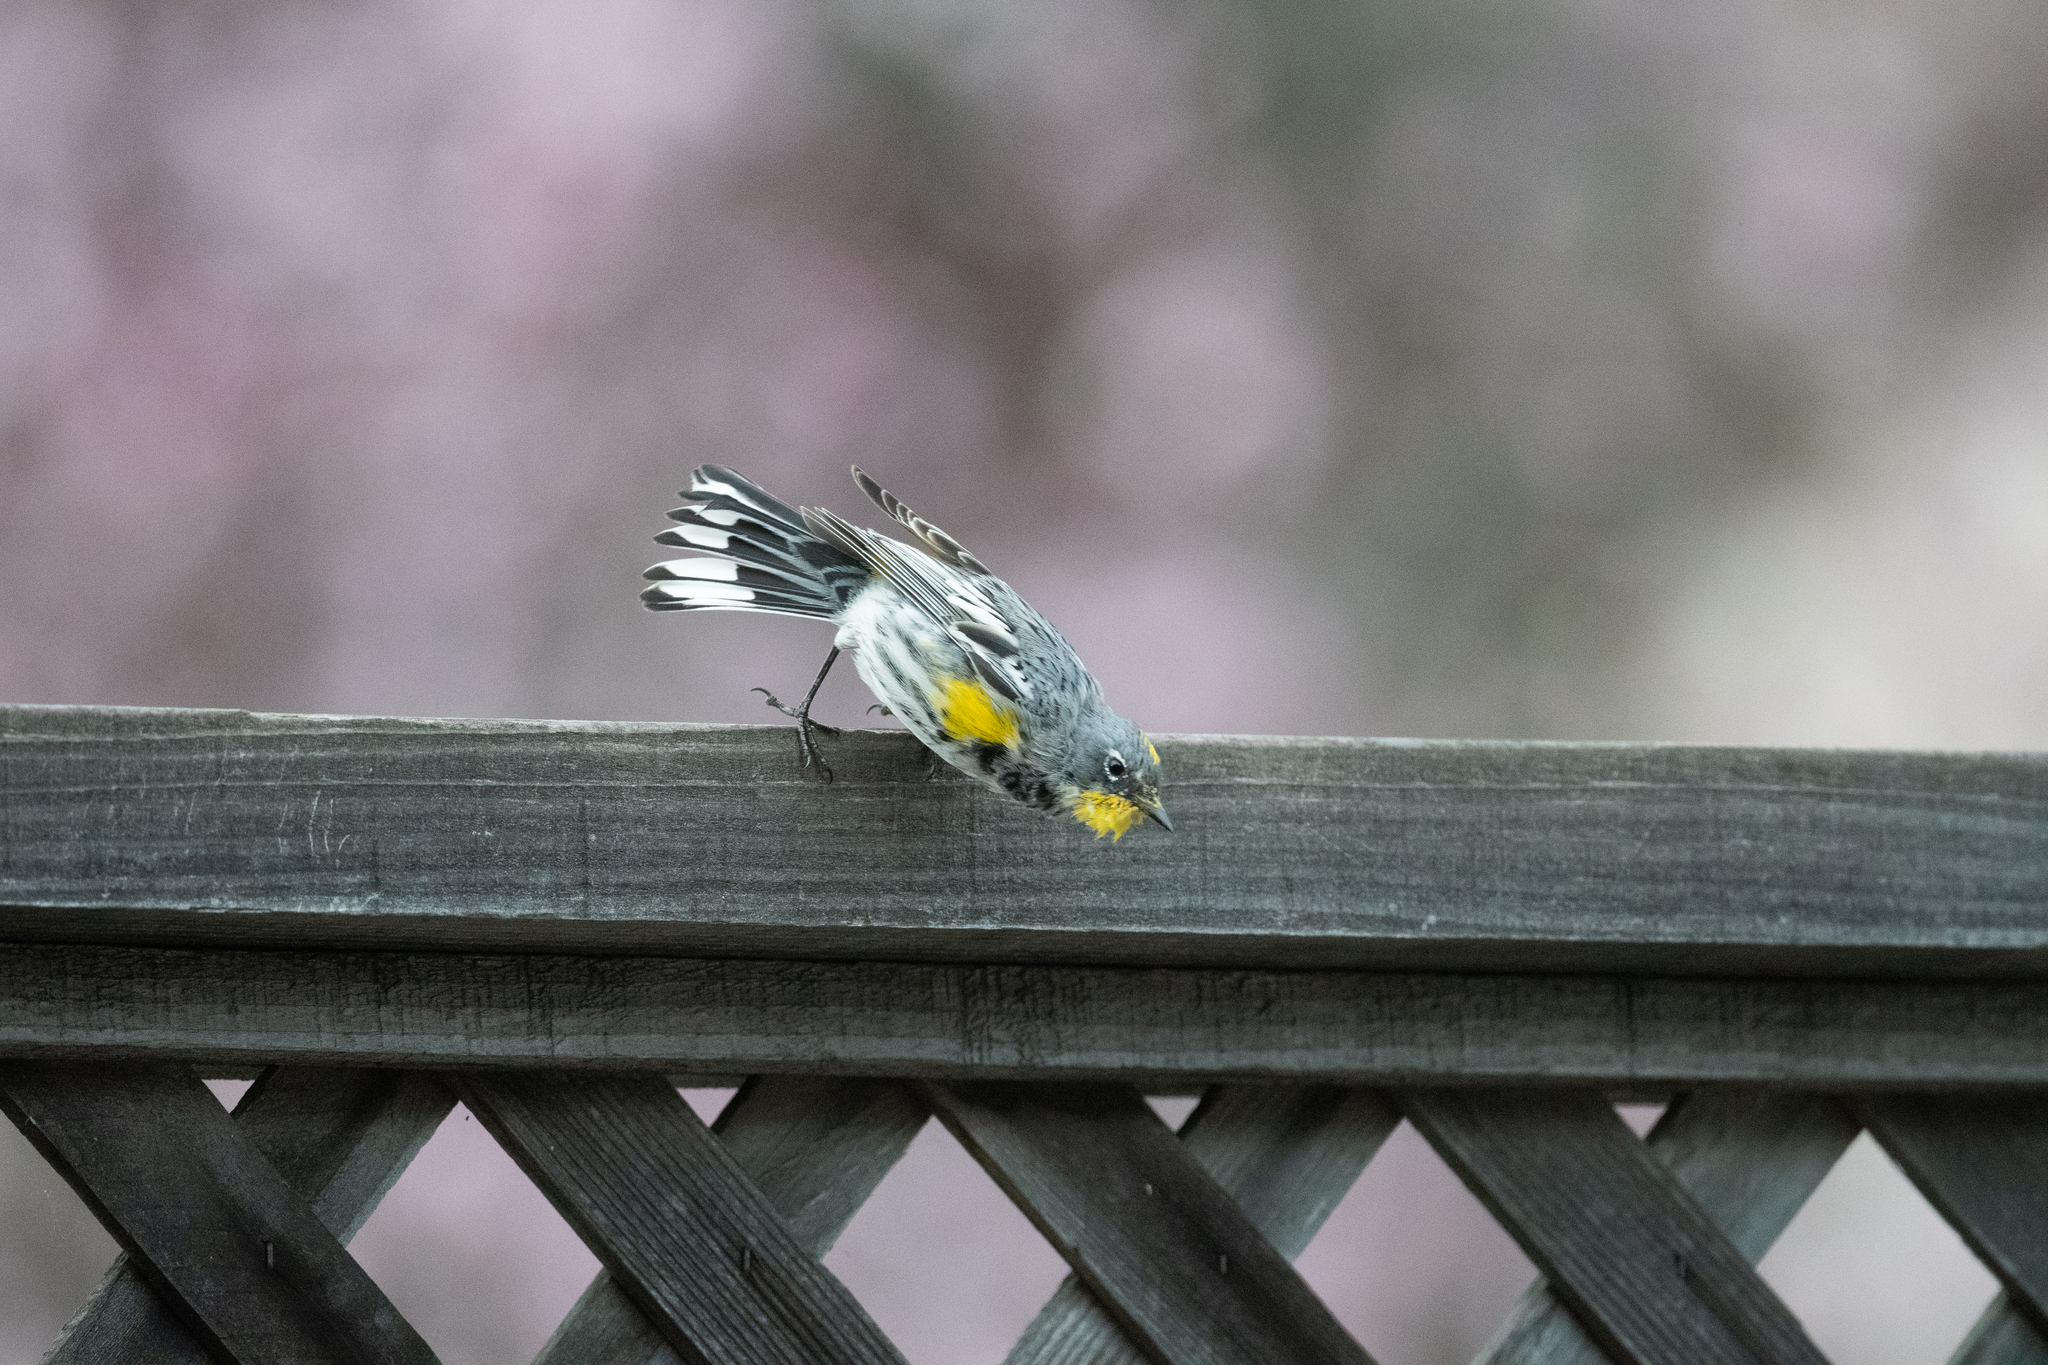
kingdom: Animalia
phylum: Chordata
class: Aves
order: Passeriformes
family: Parulidae
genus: Setophaga
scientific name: Setophaga coronata
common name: Myrtle warbler
